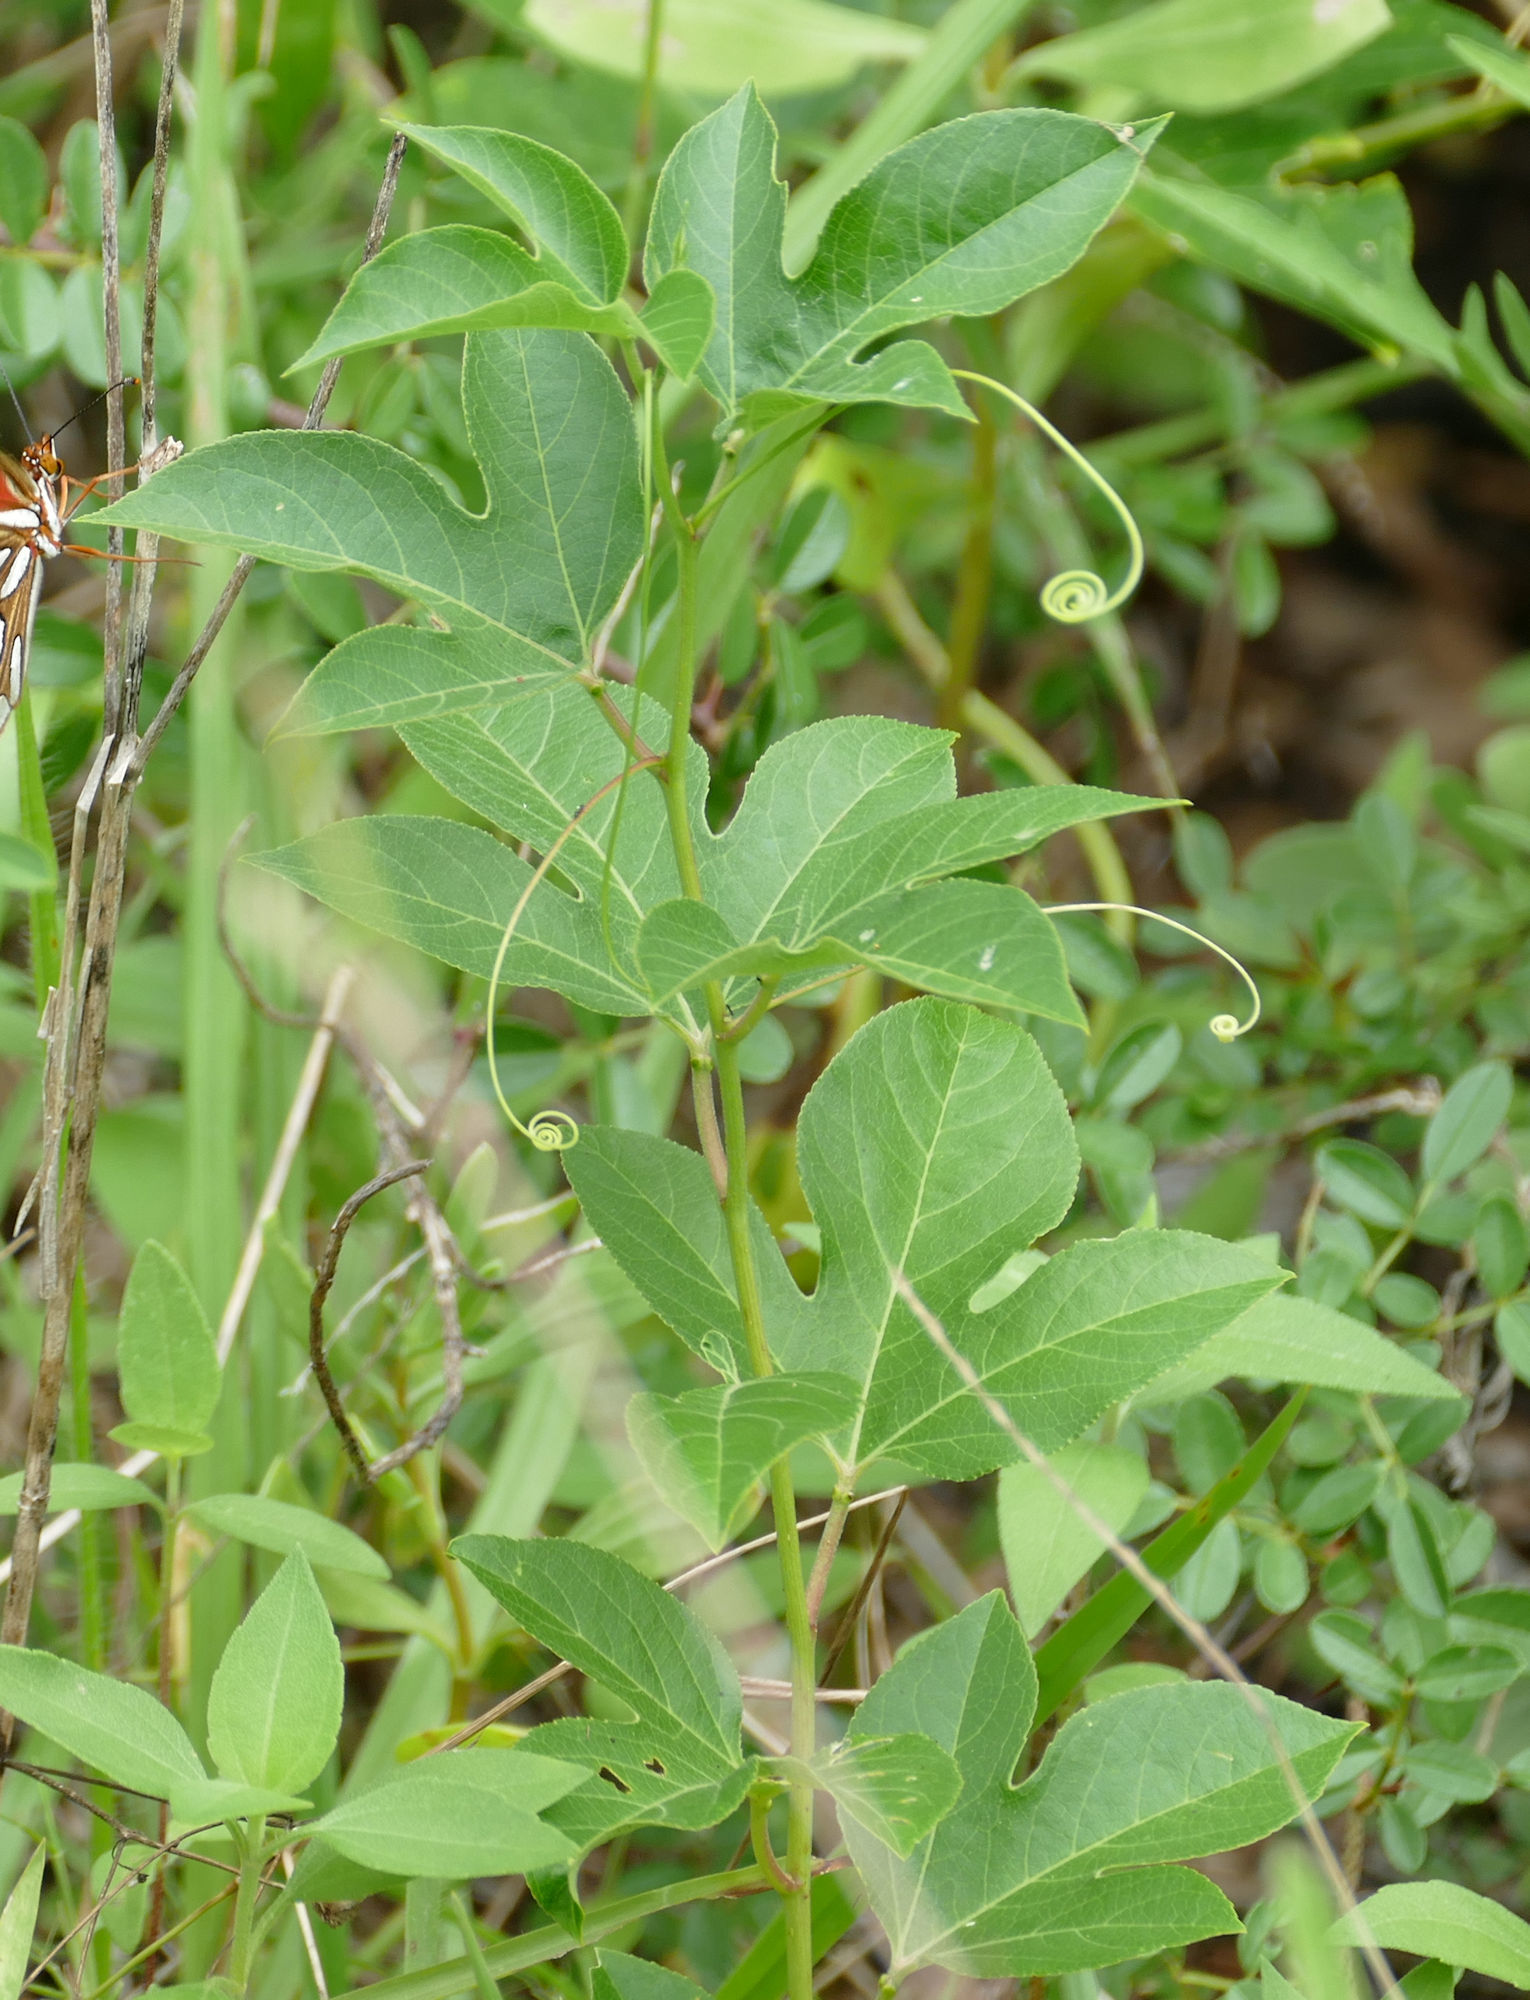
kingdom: Plantae
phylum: Tracheophyta
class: Magnoliopsida
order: Malpighiales
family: Passifloraceae
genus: Passiflora
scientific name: Passiflora incarnata
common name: Apricot-vine
